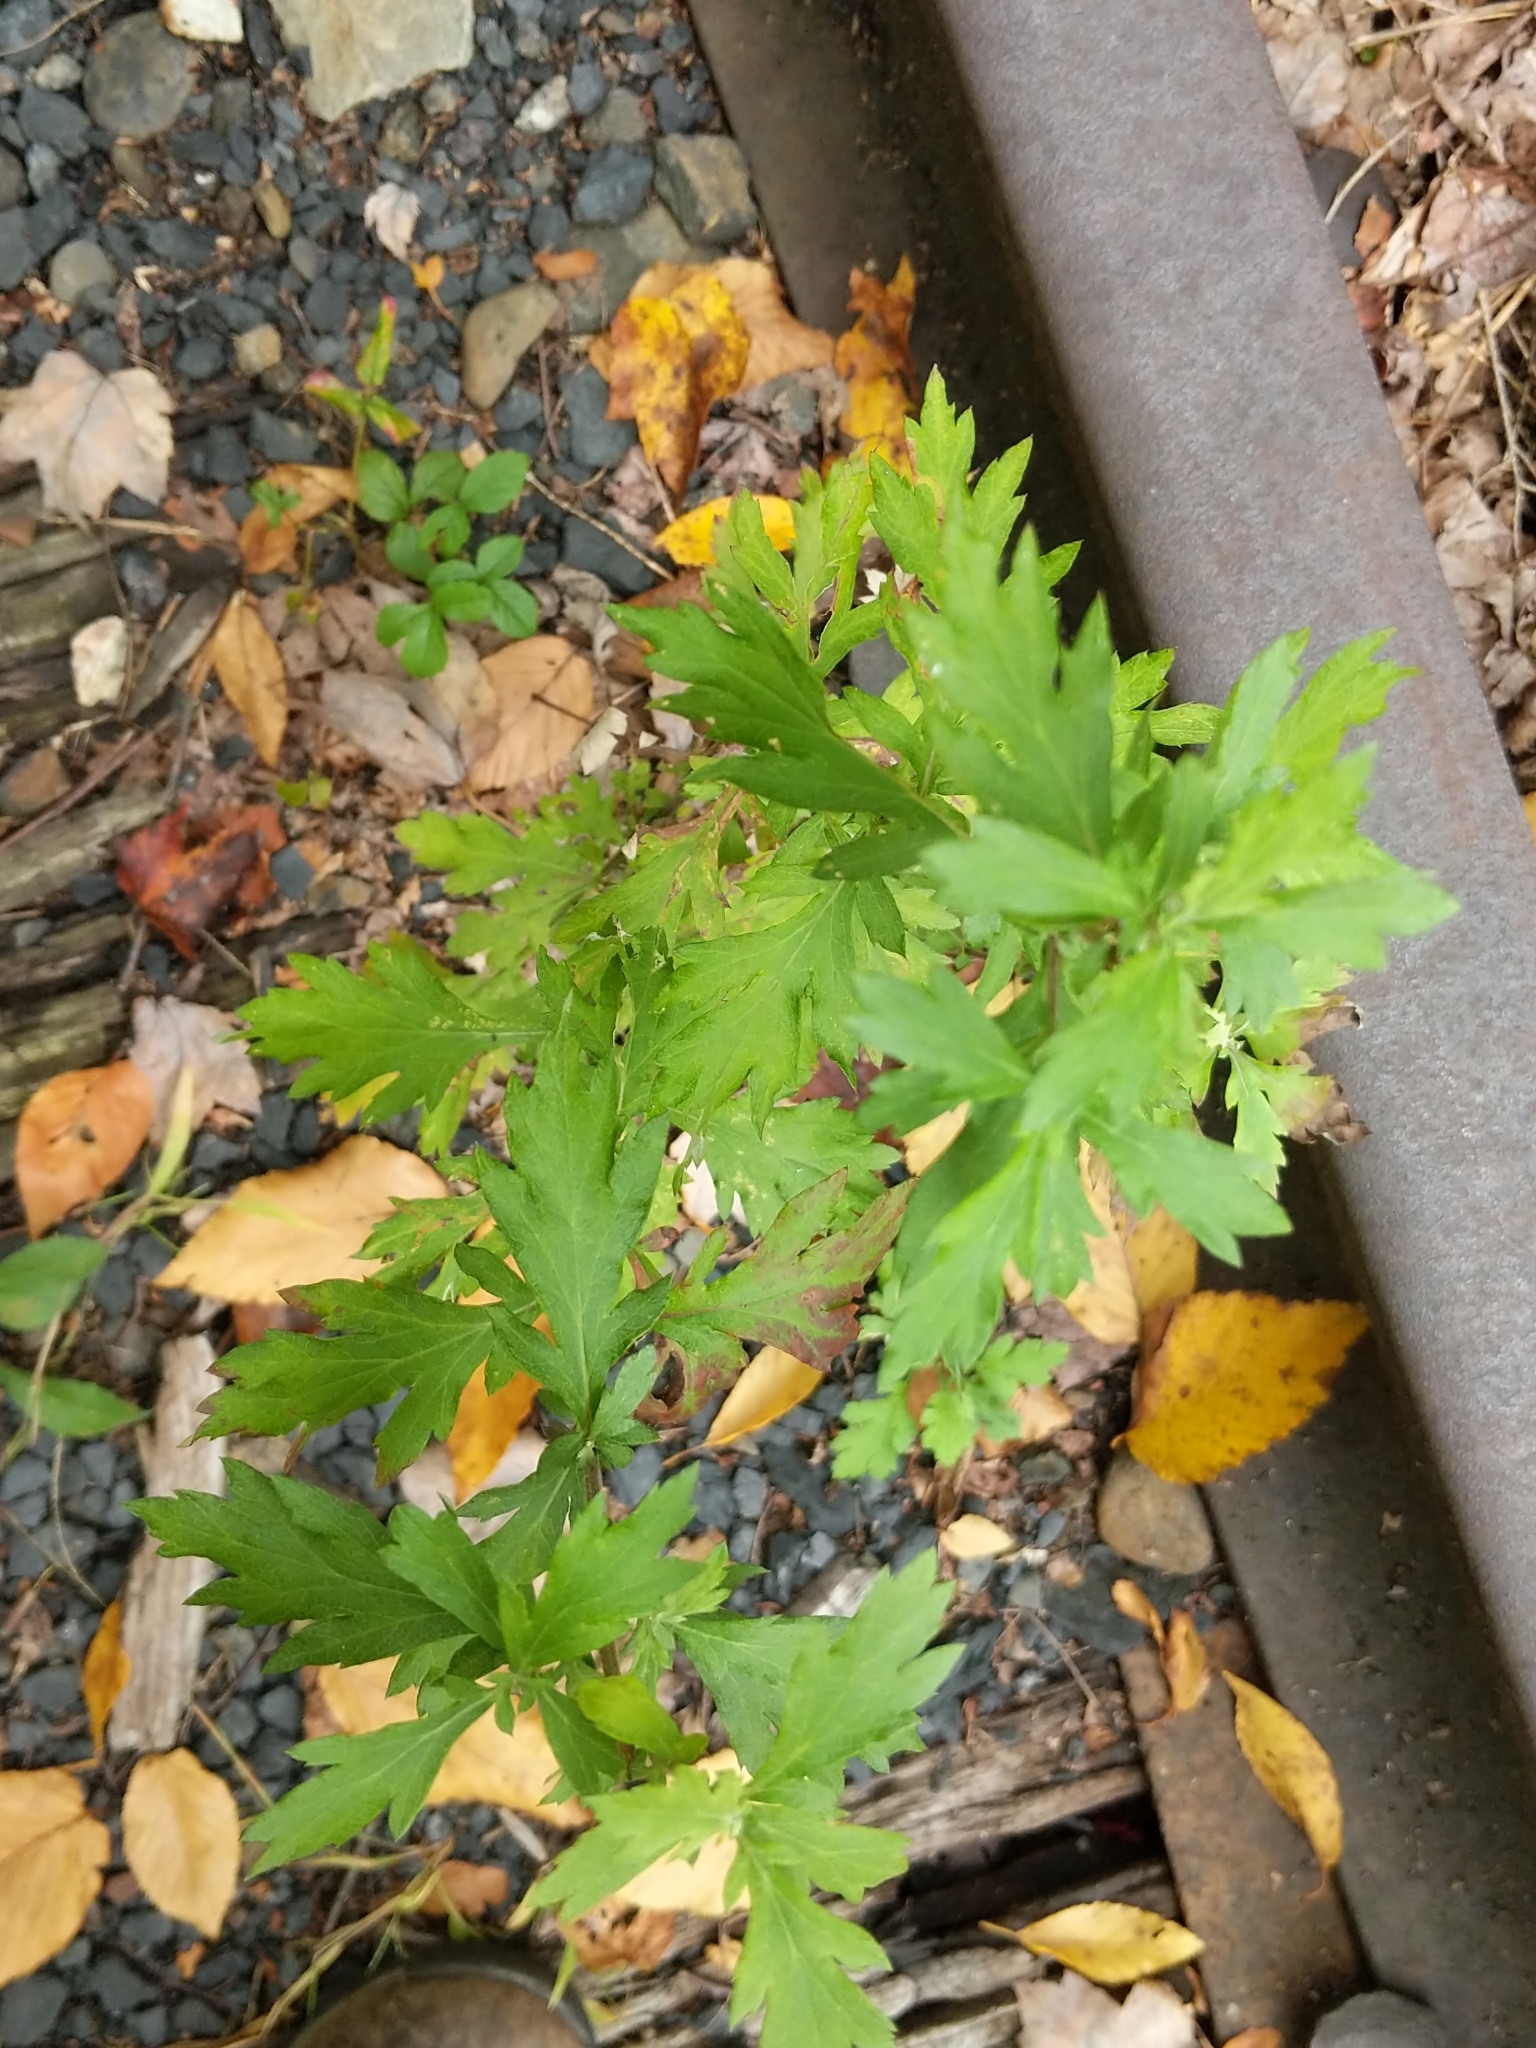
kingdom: Plantae
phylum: Tracheophyta
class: Magnoliopsida
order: Asterales
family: Asteraceae
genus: Artemisia
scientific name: Artemisia vulgaris
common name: Mugwort
